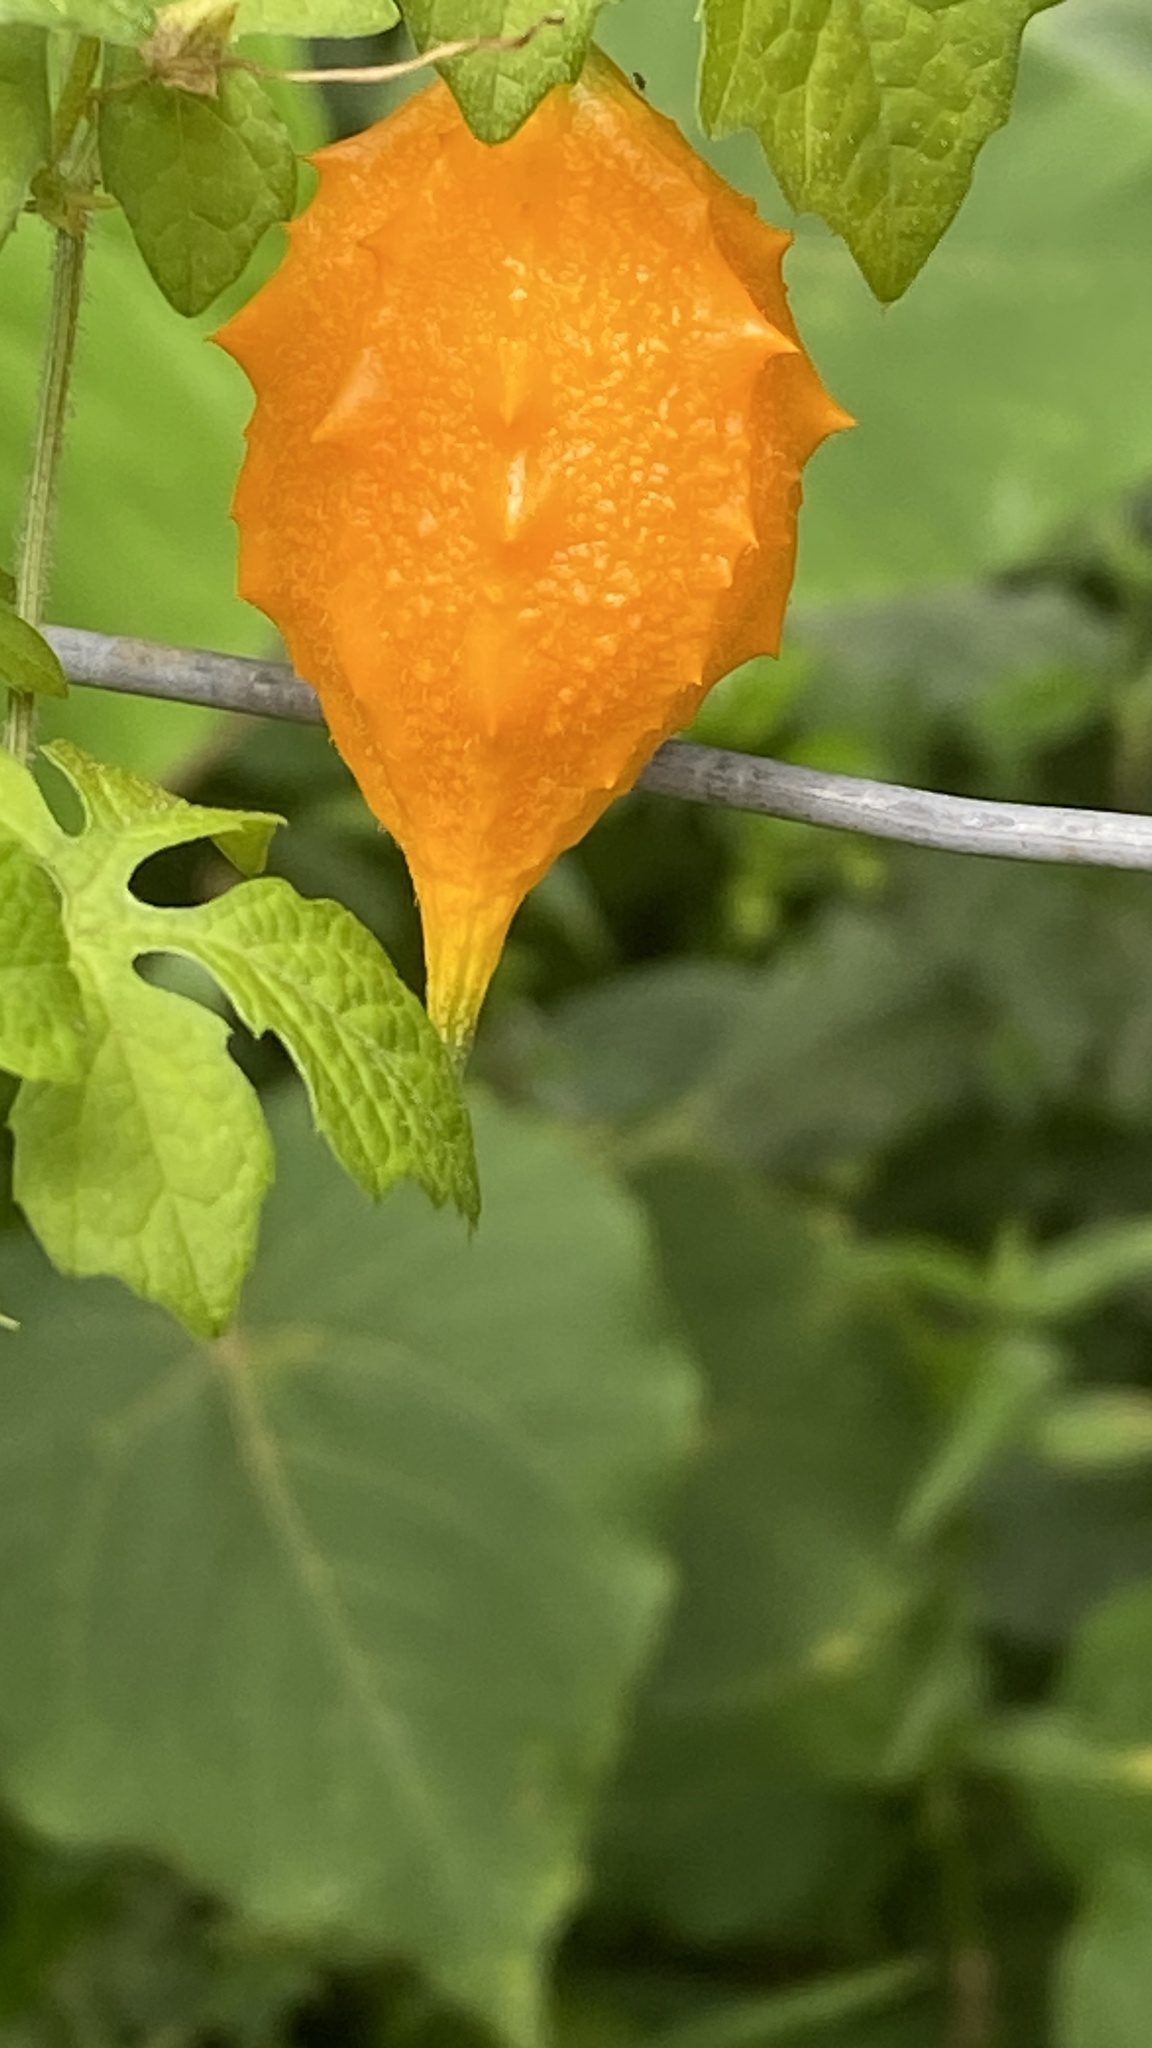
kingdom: Plantae
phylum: Tracheophyta
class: Magnoliopsida
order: Cucurbitales
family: Cucurbitaceae
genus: Momordica
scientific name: Momordica charantia
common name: Balsampear
